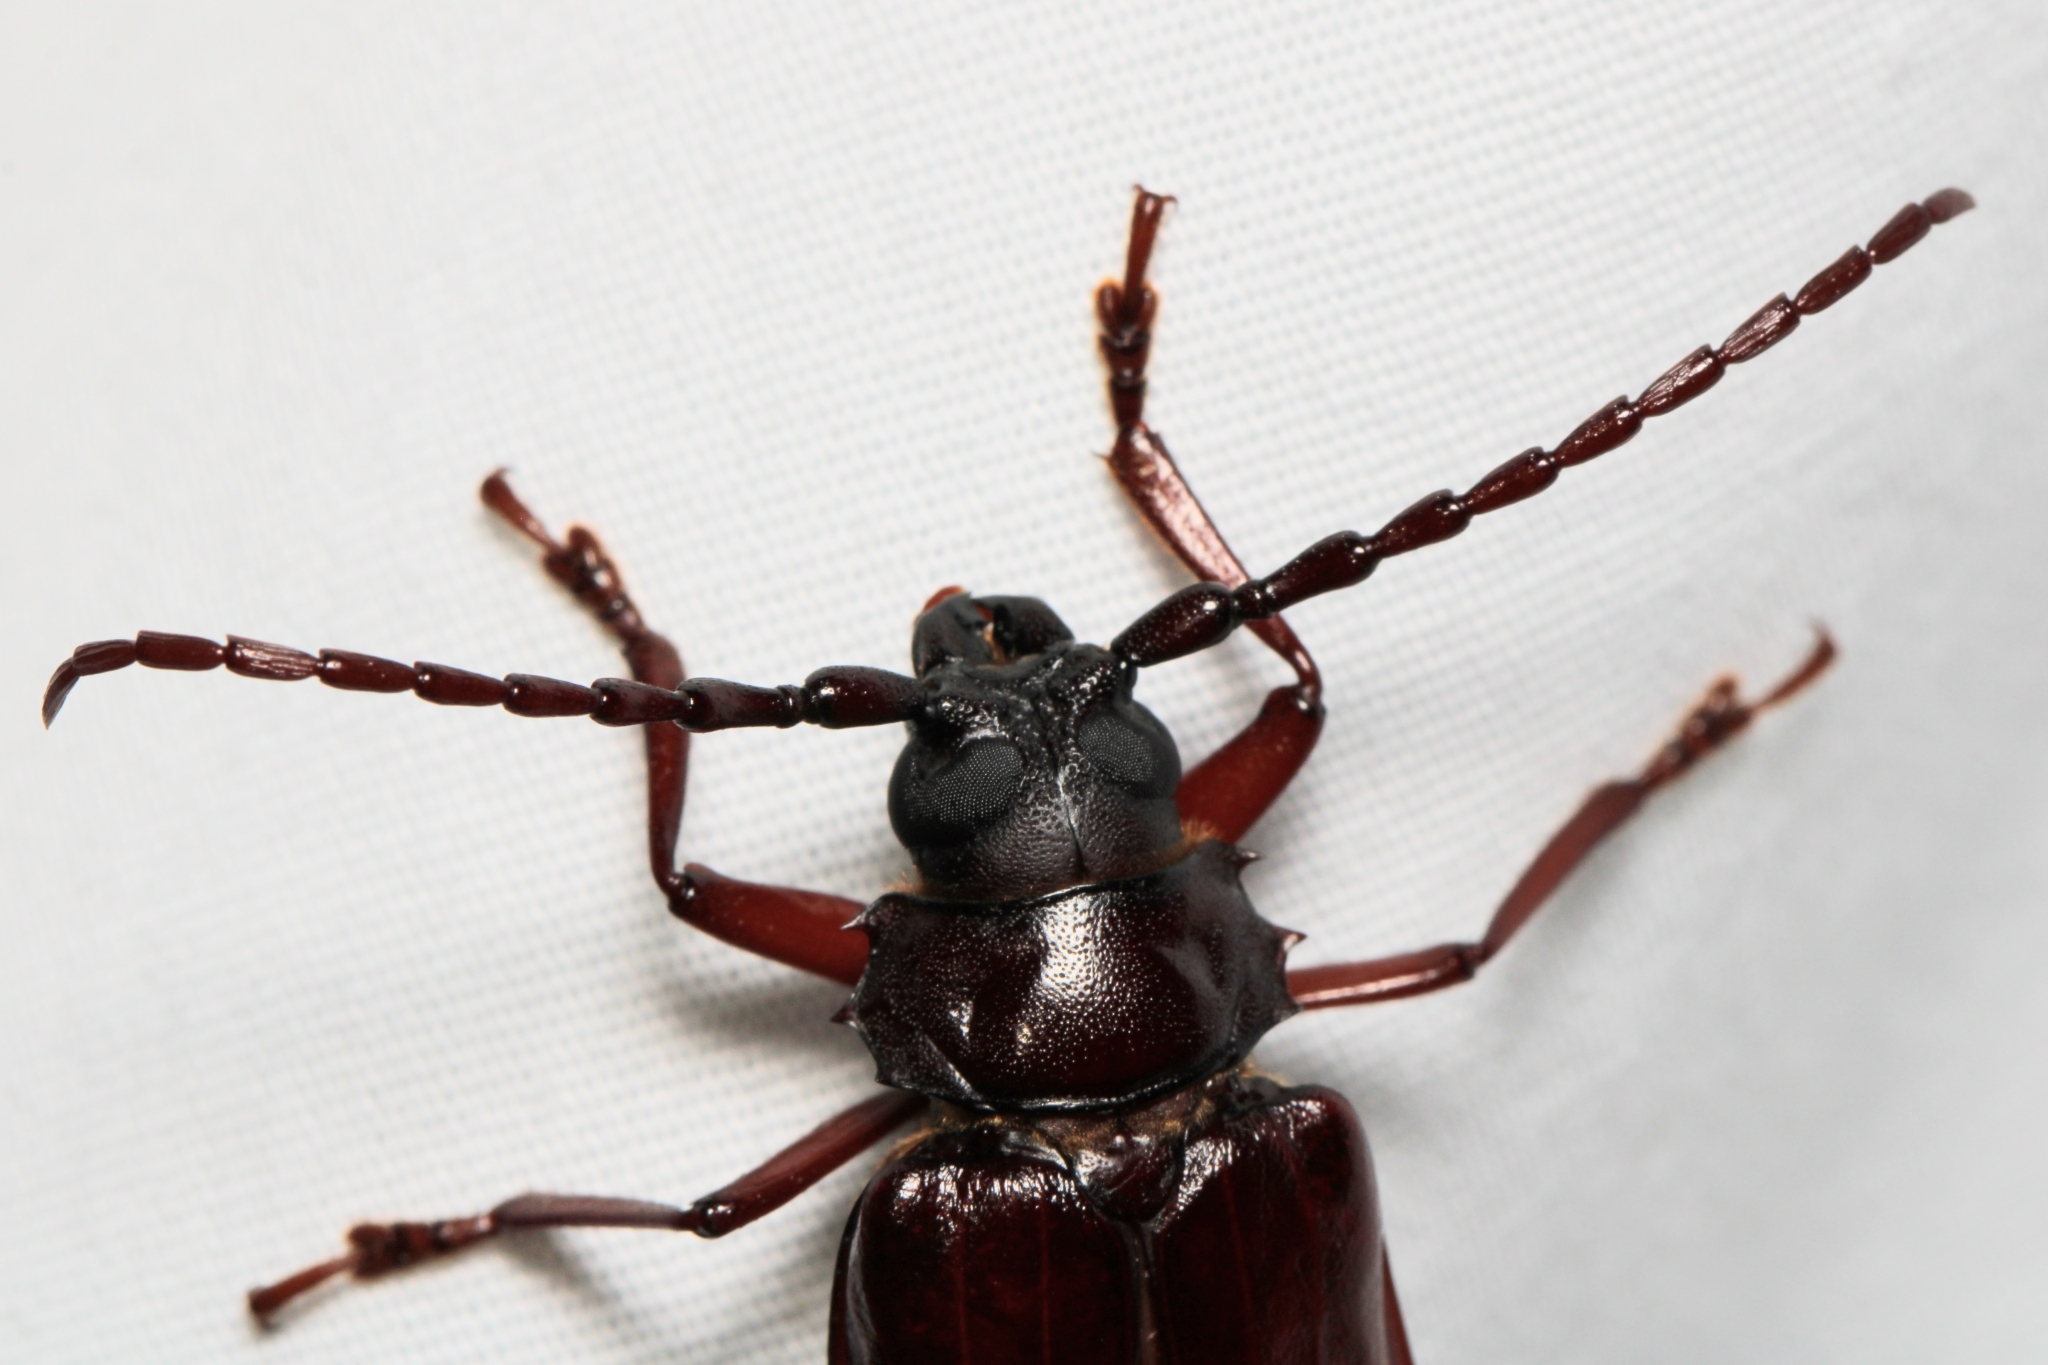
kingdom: Animalia
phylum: Arthropoda
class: Insecta
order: Coleoptera
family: Cerambycidae
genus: Orthosoma
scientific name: Orthosoma brunneum
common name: Brown prionid beetle
